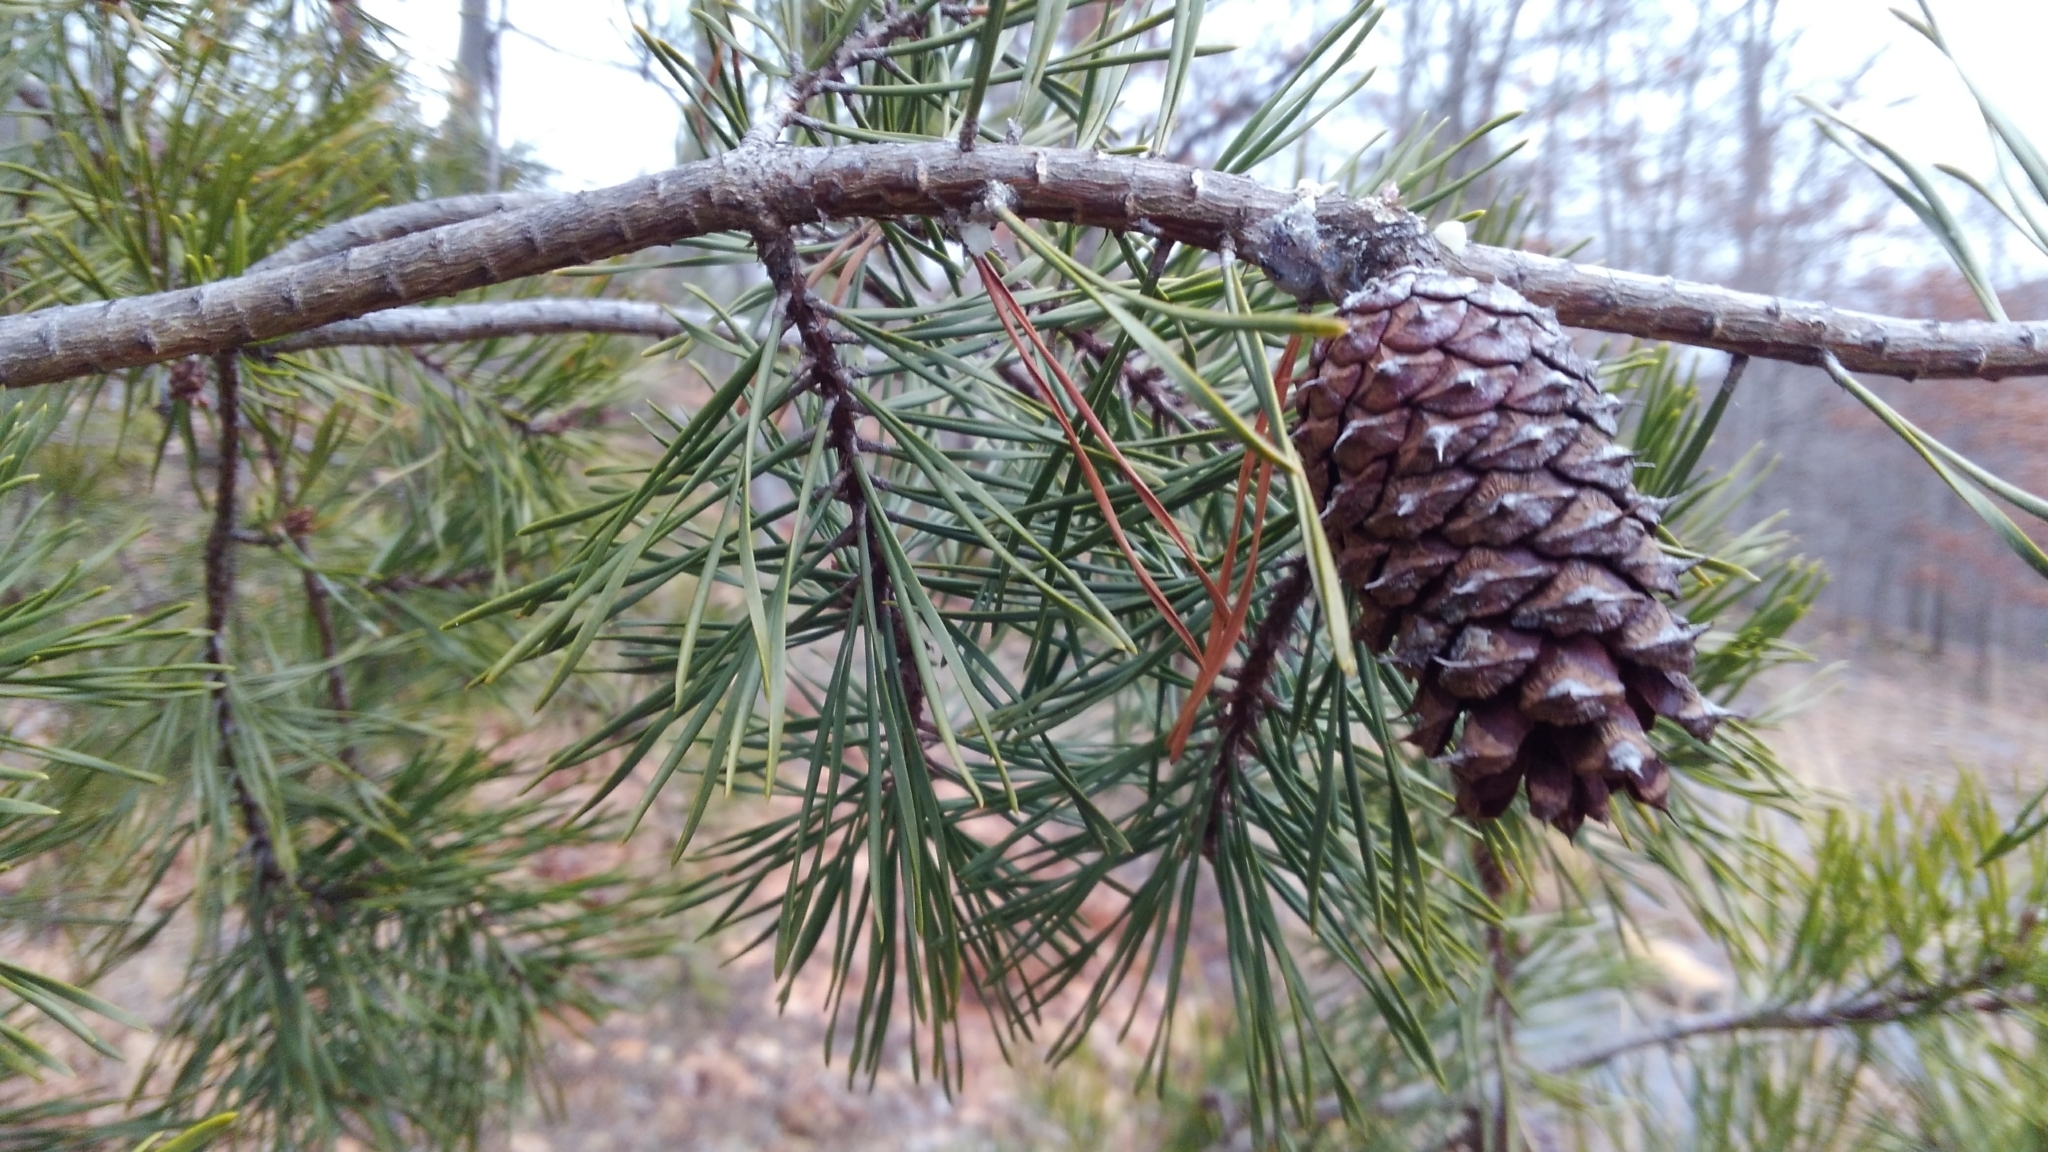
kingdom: Plantae
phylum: Tracheophyta
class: Pinopsida
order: Pinales
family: Pinaceae
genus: Pinus
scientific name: Pinus virginiana
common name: Scrub pine
